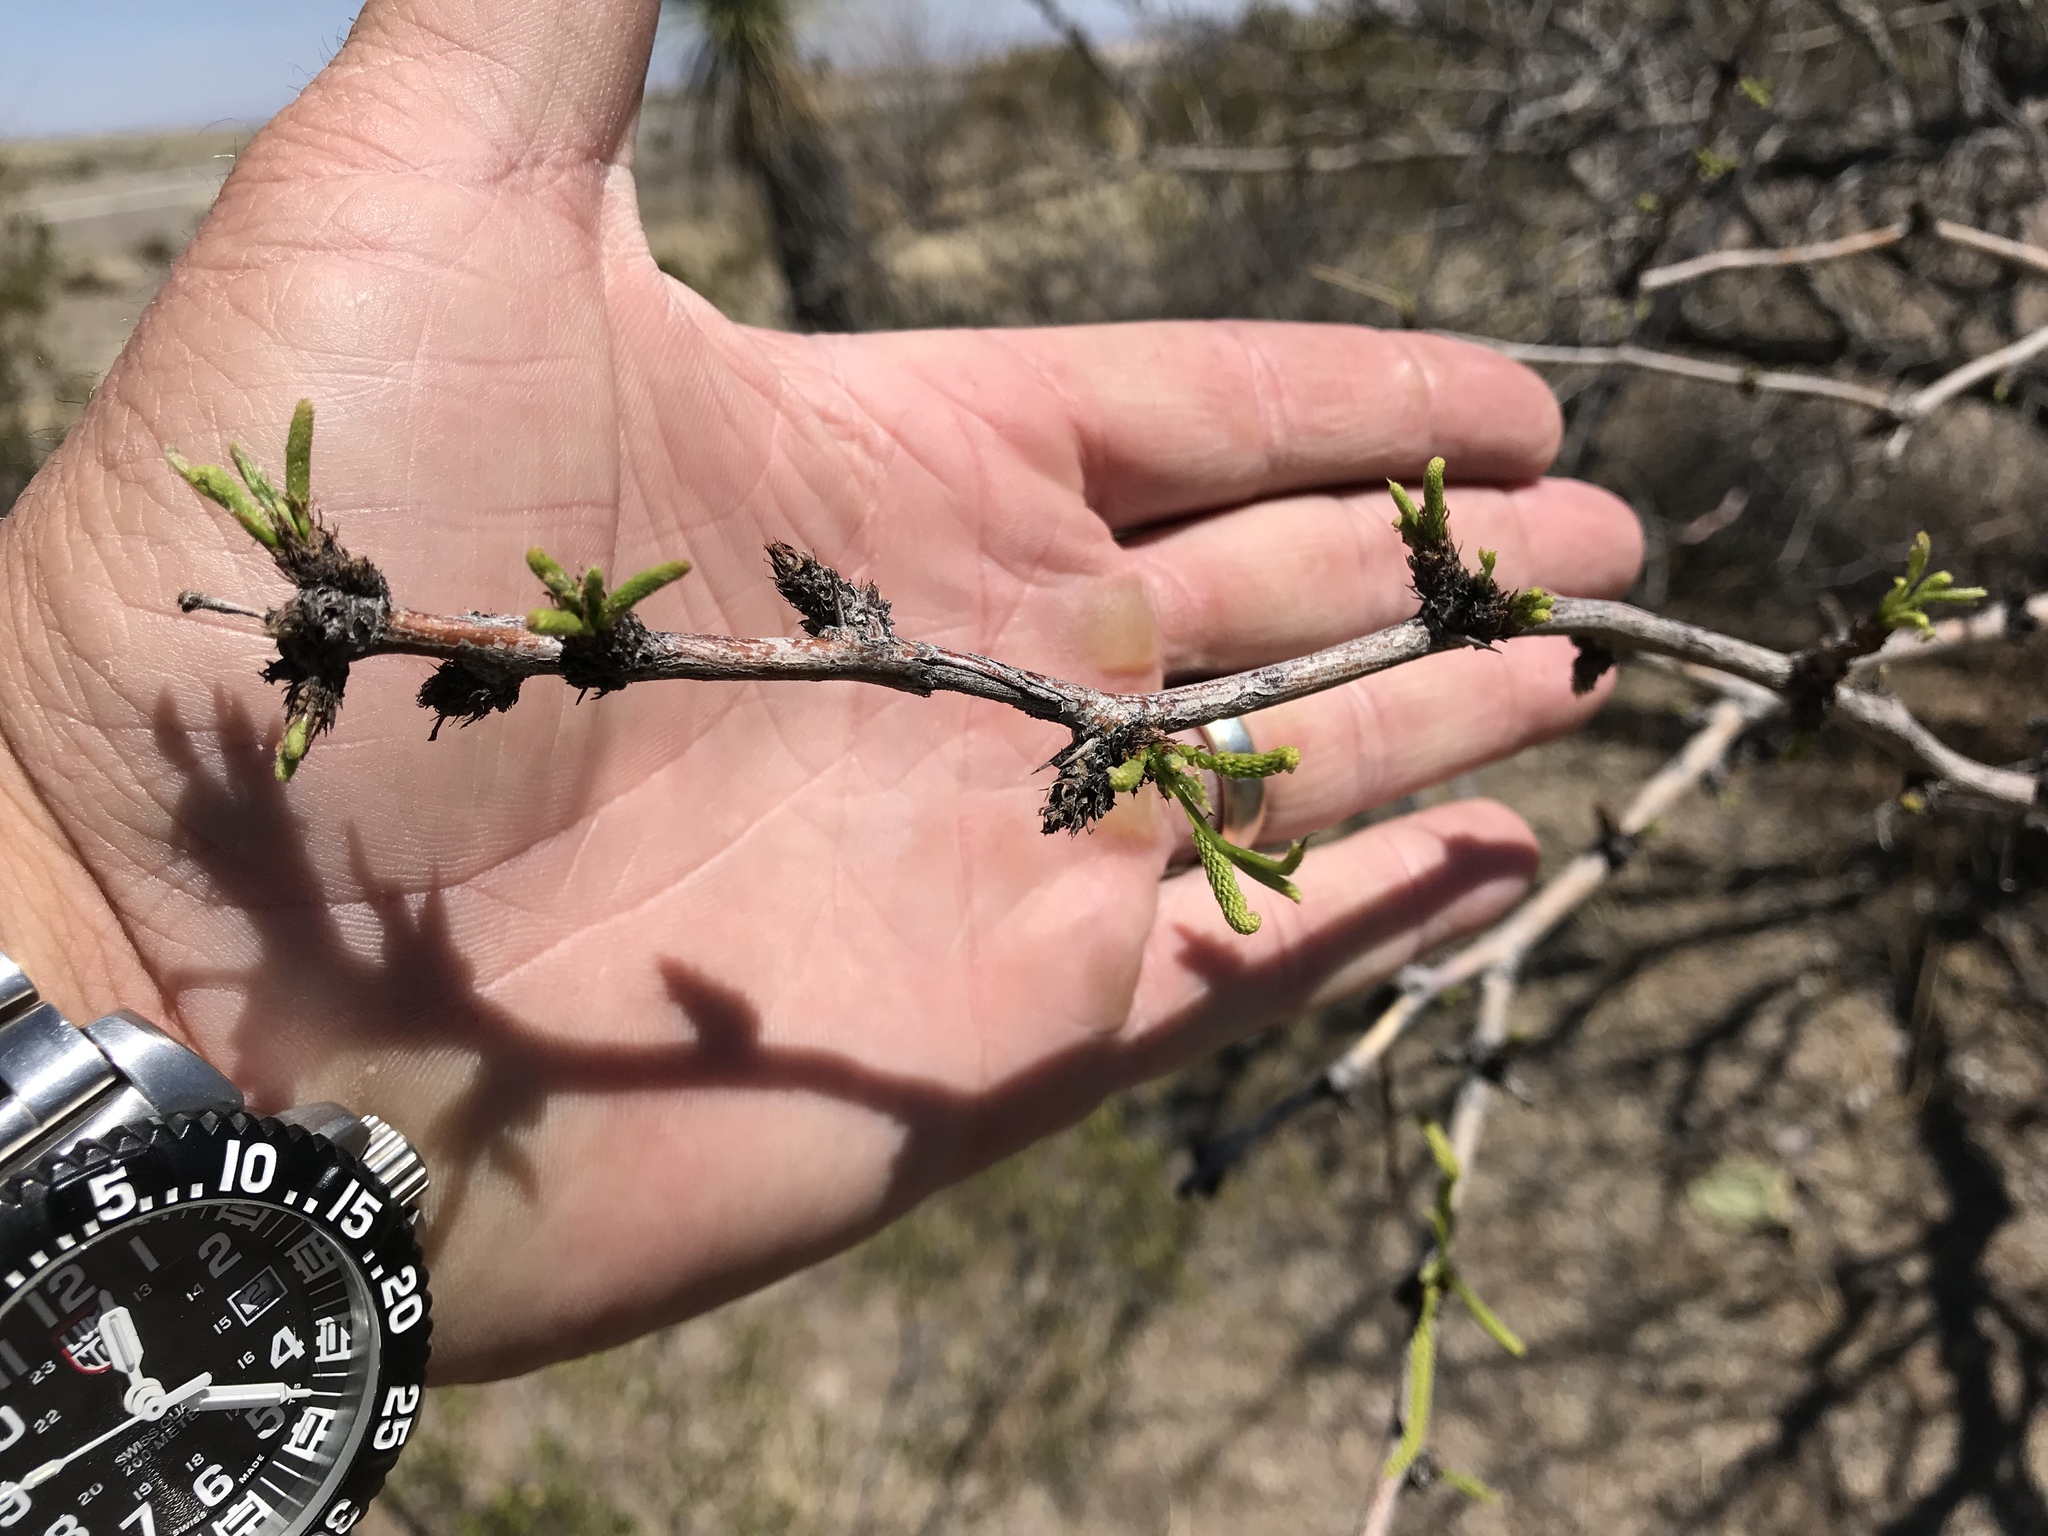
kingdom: Plantae
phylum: Tracheophyta
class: Magnoliopsida
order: Fabales
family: Fabaceae
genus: Prosopis
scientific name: Prosopis glandulosa
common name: Honey mesquite
